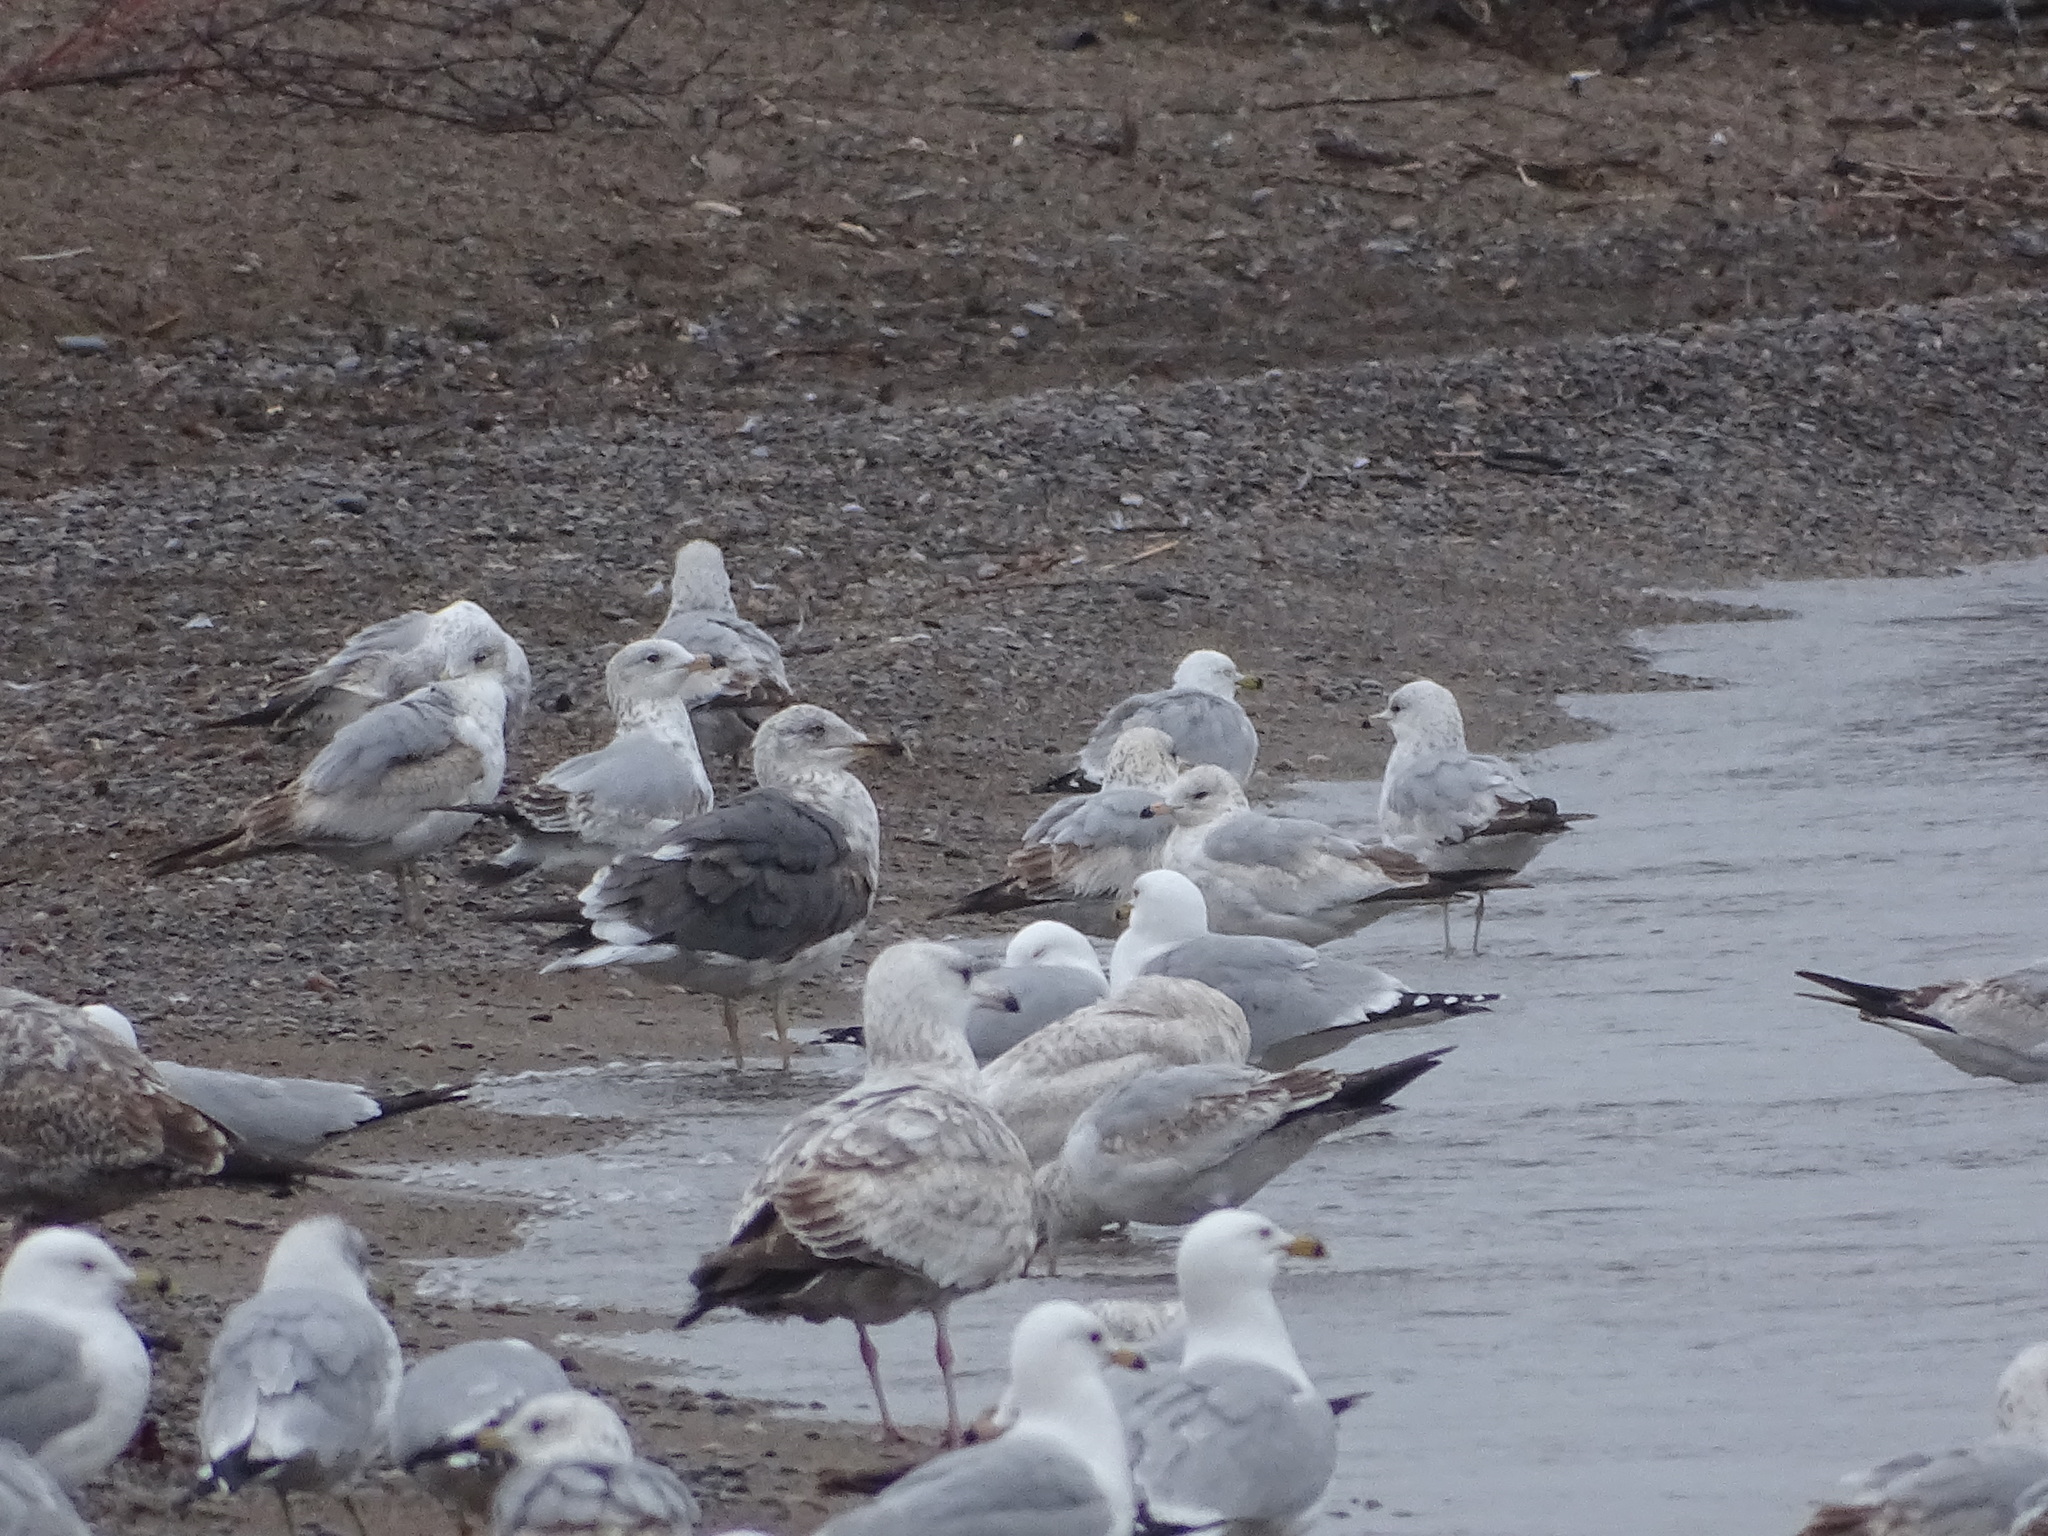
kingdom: Animalia
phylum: Chordata
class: Aves
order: Charadriiformes
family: Laridae
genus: Larus
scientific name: Larus fuscus
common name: Lesser black-backed gull
